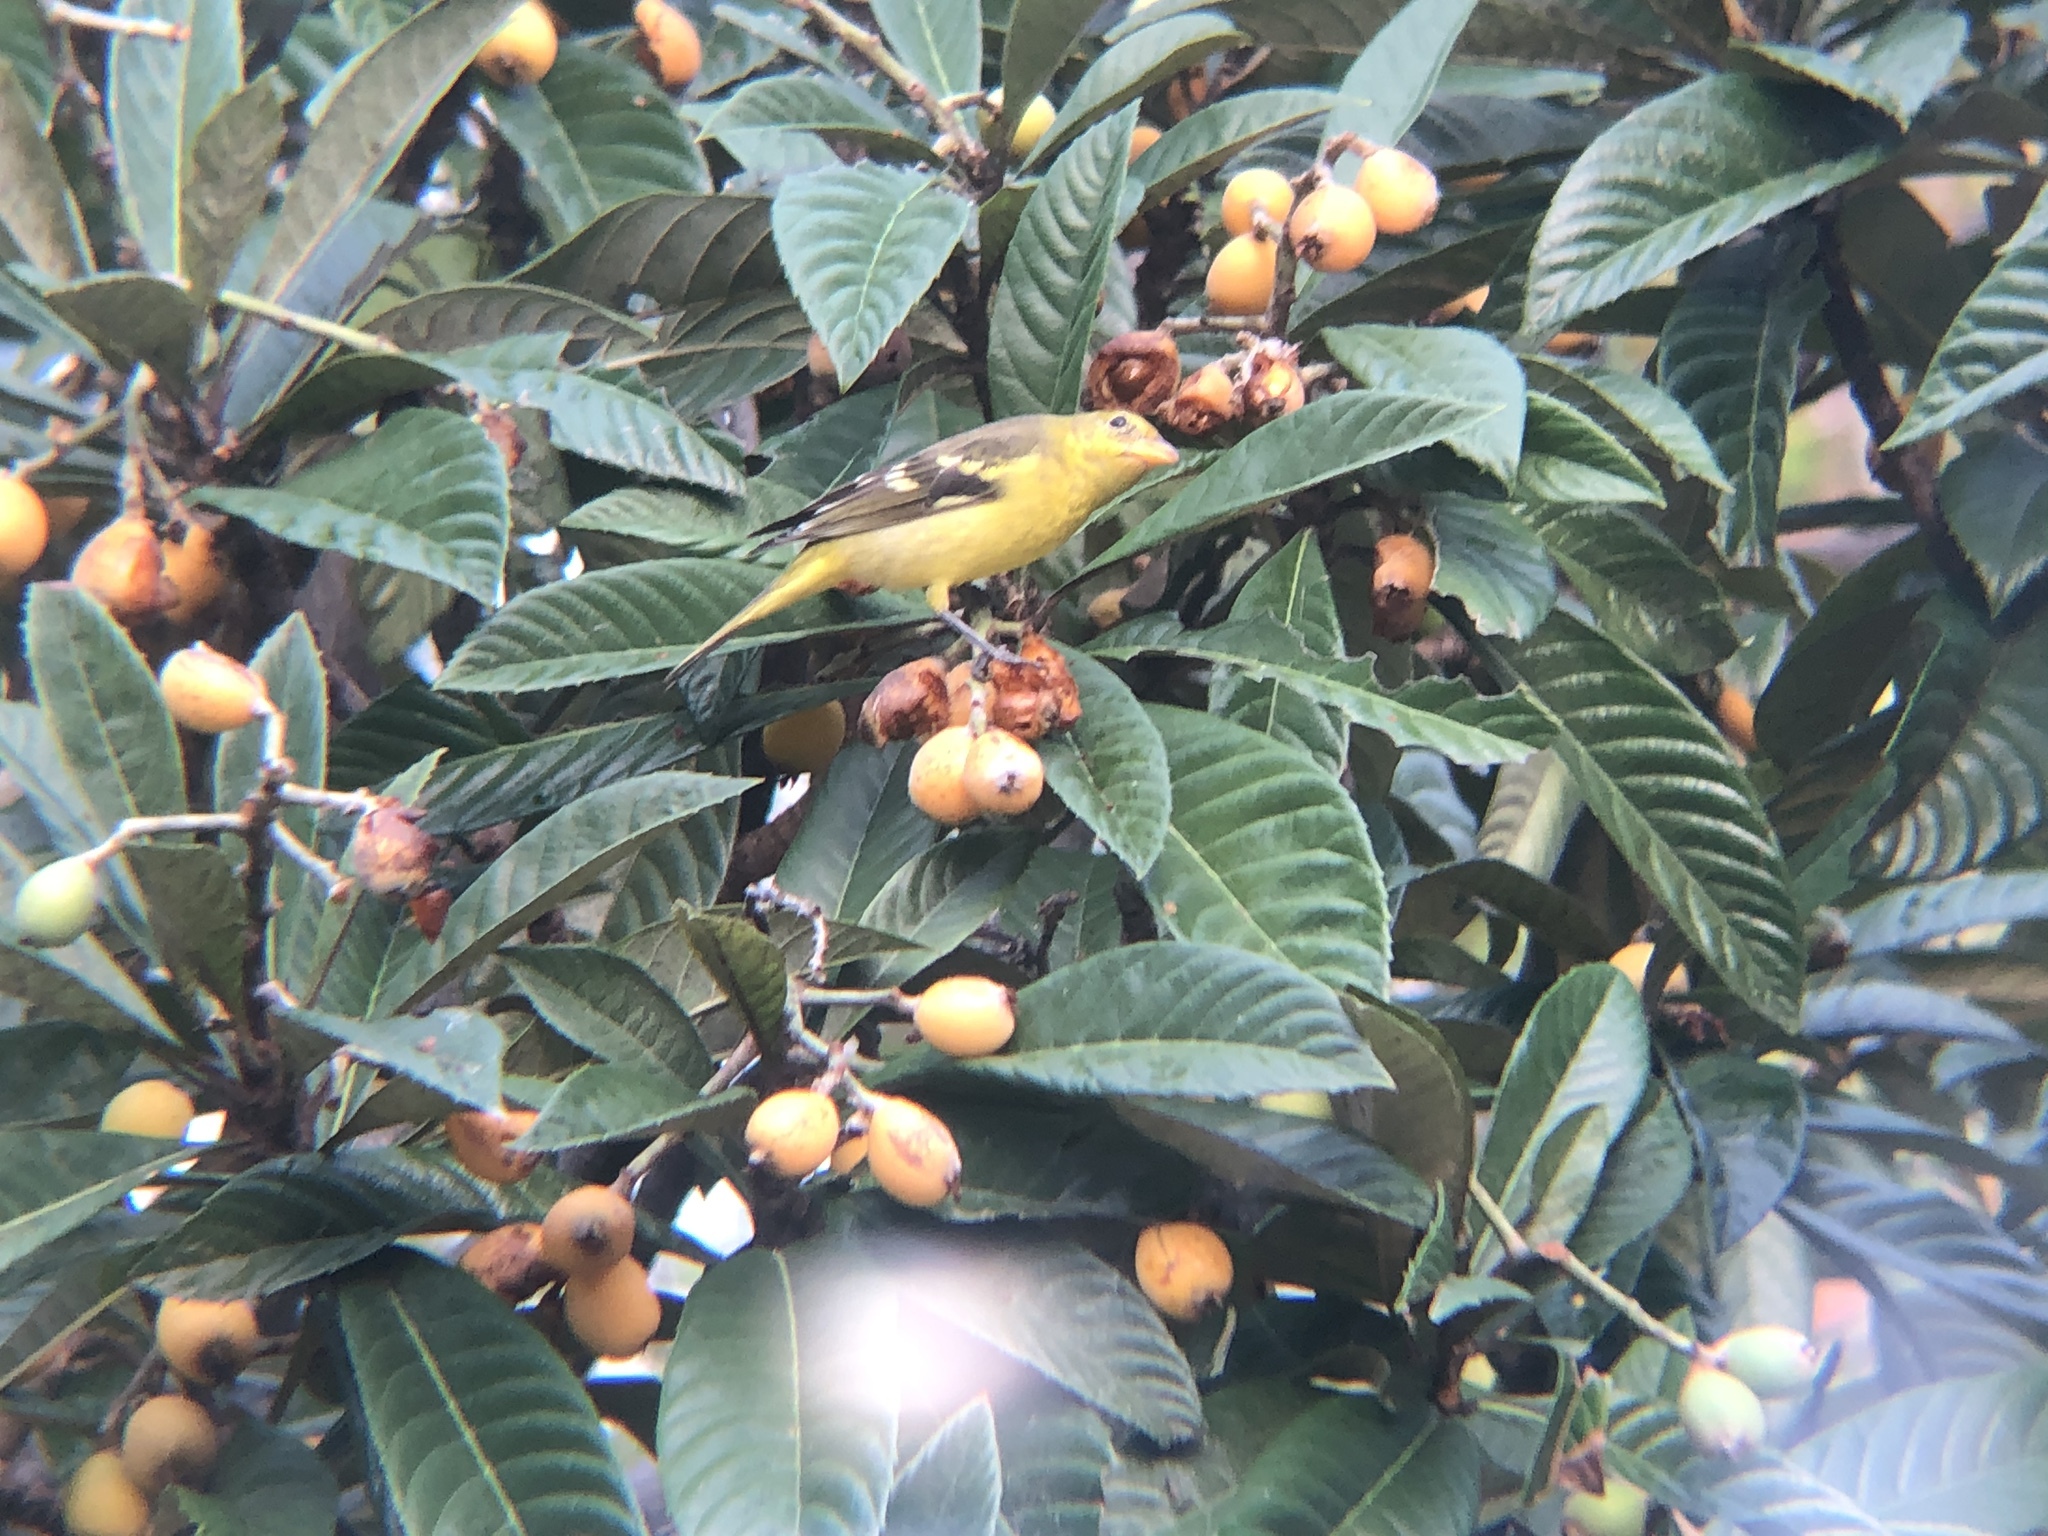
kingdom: Animalia
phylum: Chordata
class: Aves
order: Passeriformes
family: Cardinalidae
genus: Piranga
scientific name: Piranga ludoviciana
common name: Western tanager
